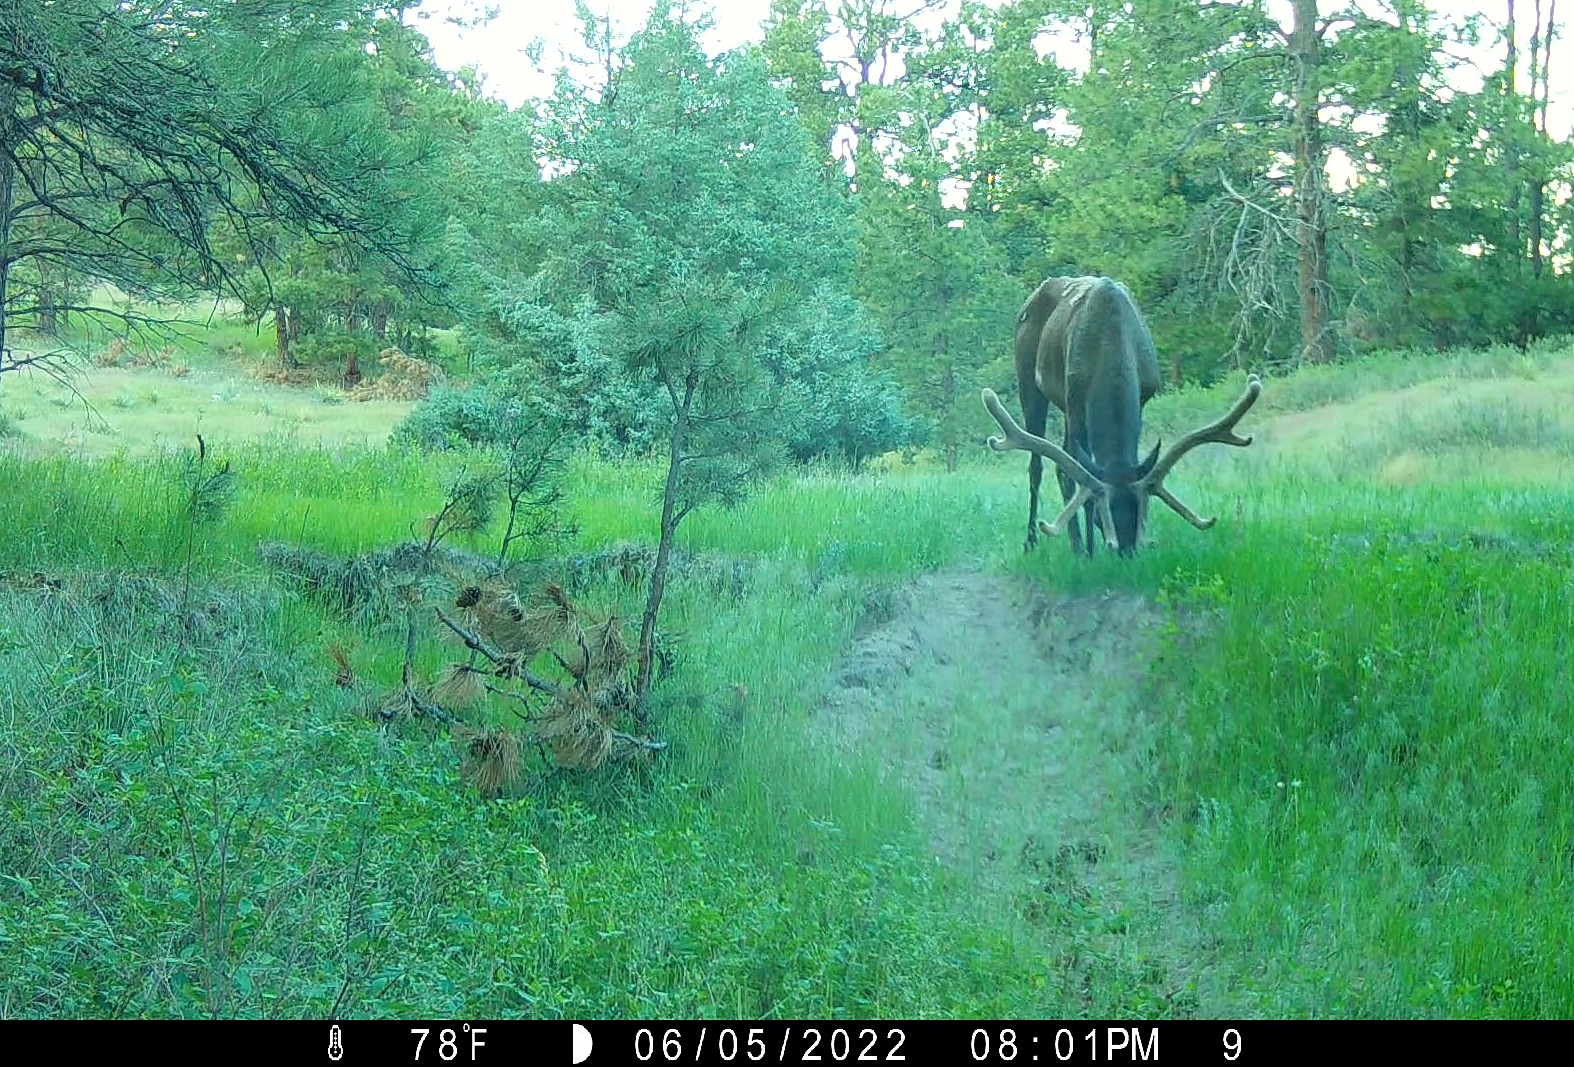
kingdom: Animalia
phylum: Chordata
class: Mammalia
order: Artiodactyla
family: Cervidae
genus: Cervus
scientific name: Cervus elaphus
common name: Red deer
